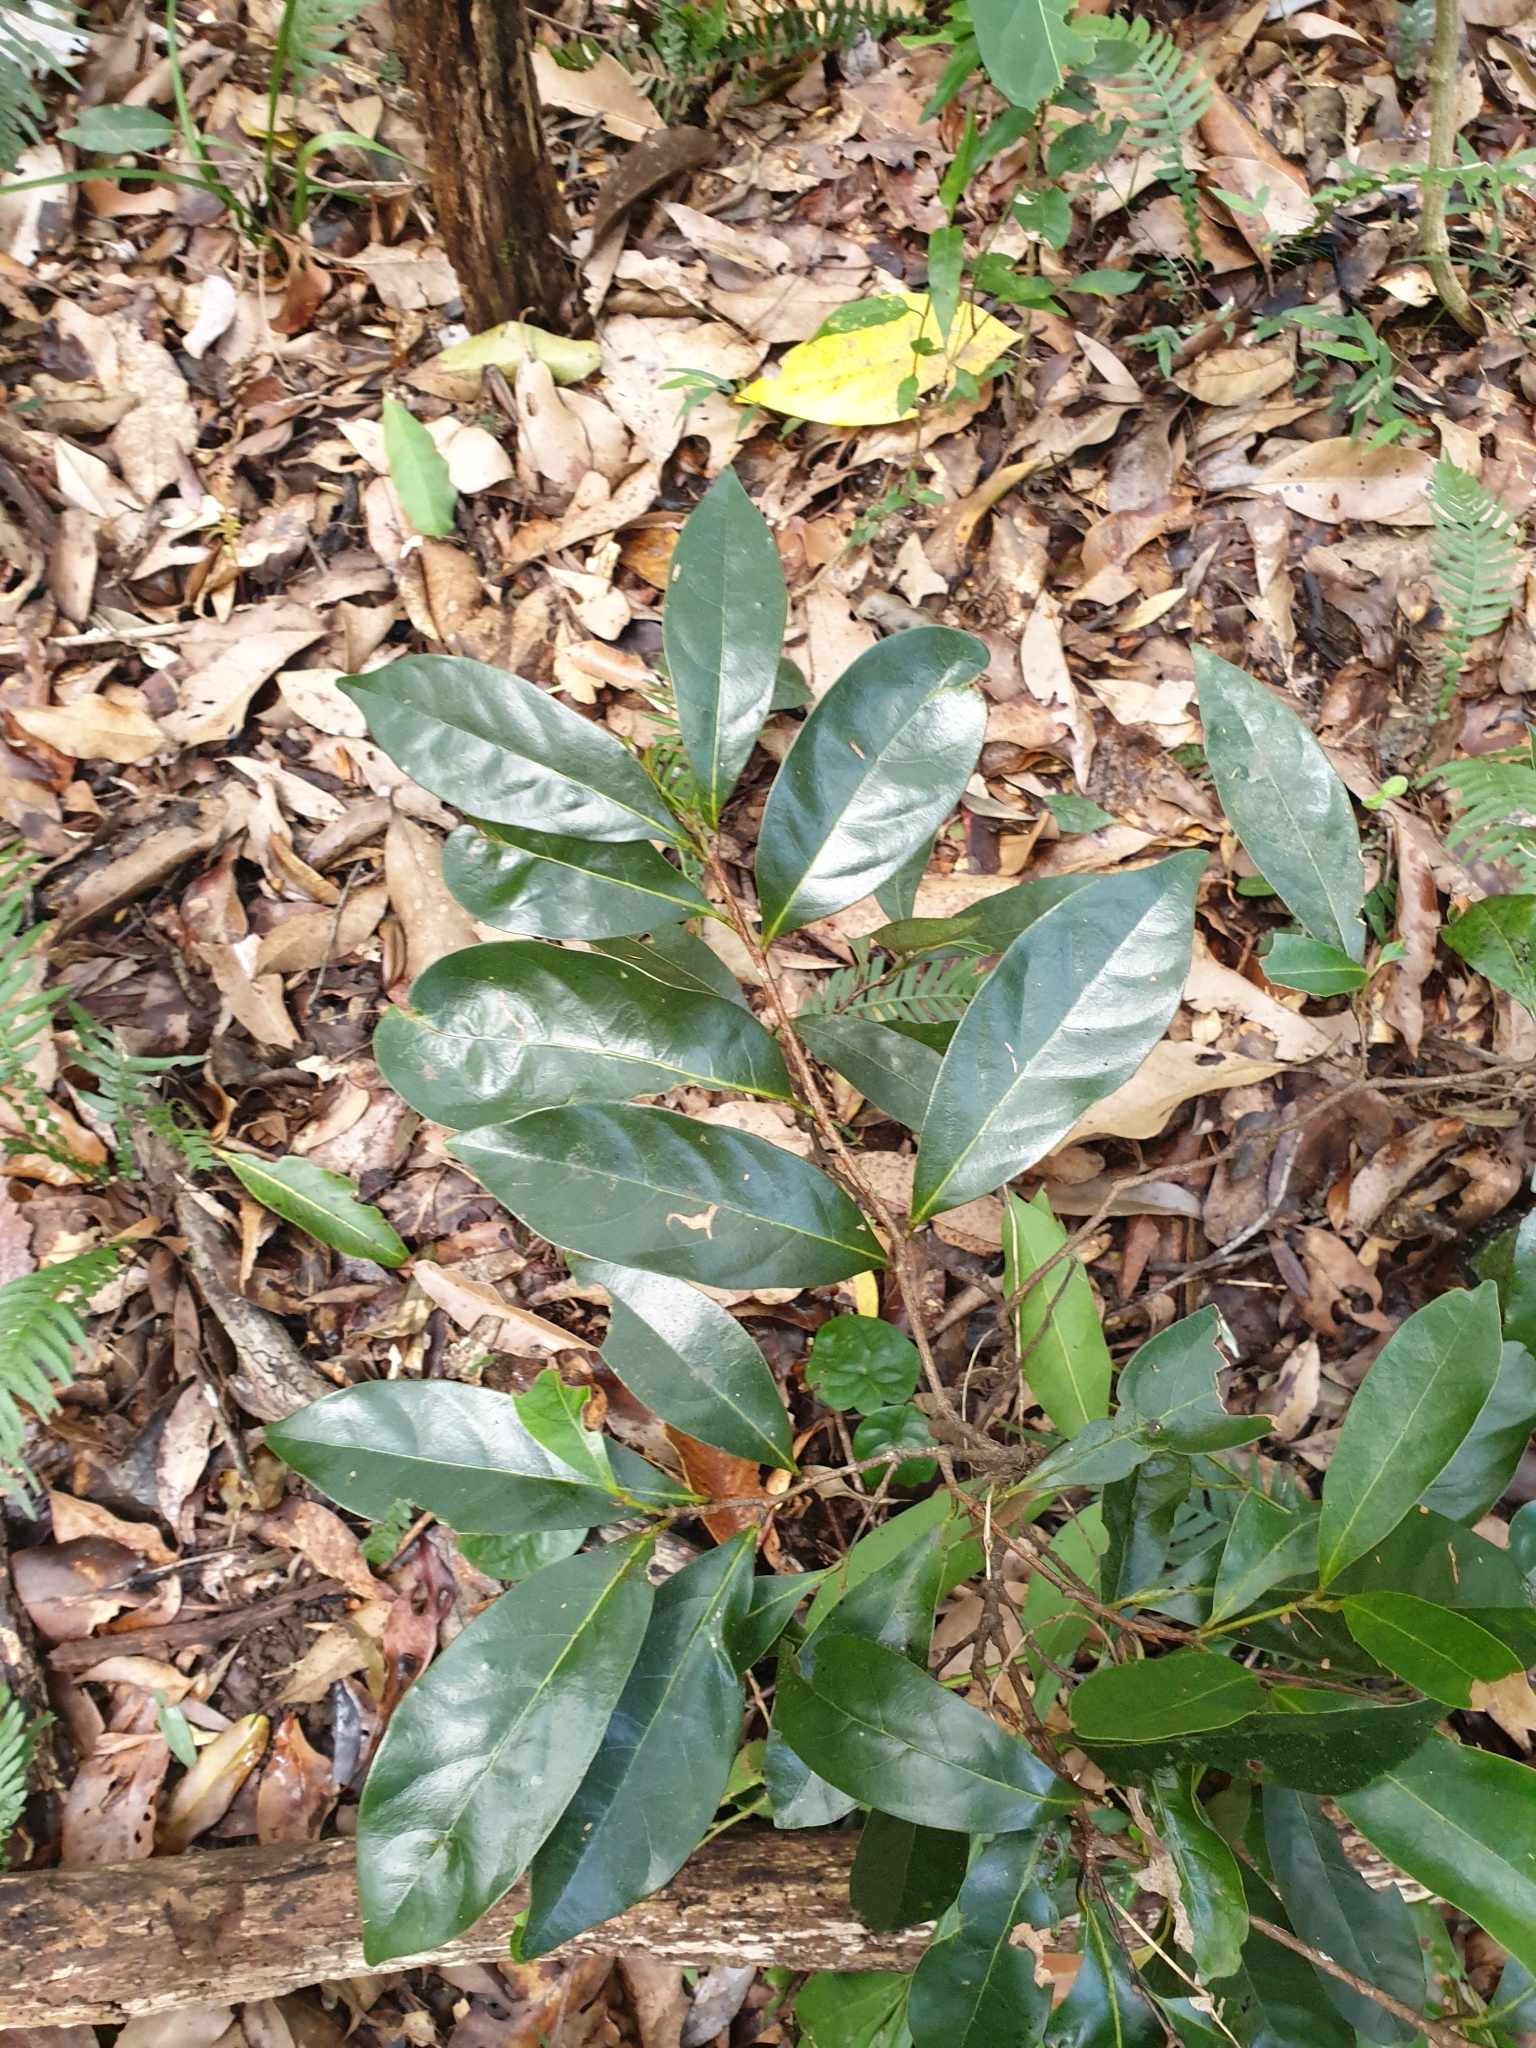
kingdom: Plantae
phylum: Tracheophyta
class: Magnoliopsida
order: Malpighiales
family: Phyllanthaceae
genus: Glochidion
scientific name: Glochidion ferdinandi
